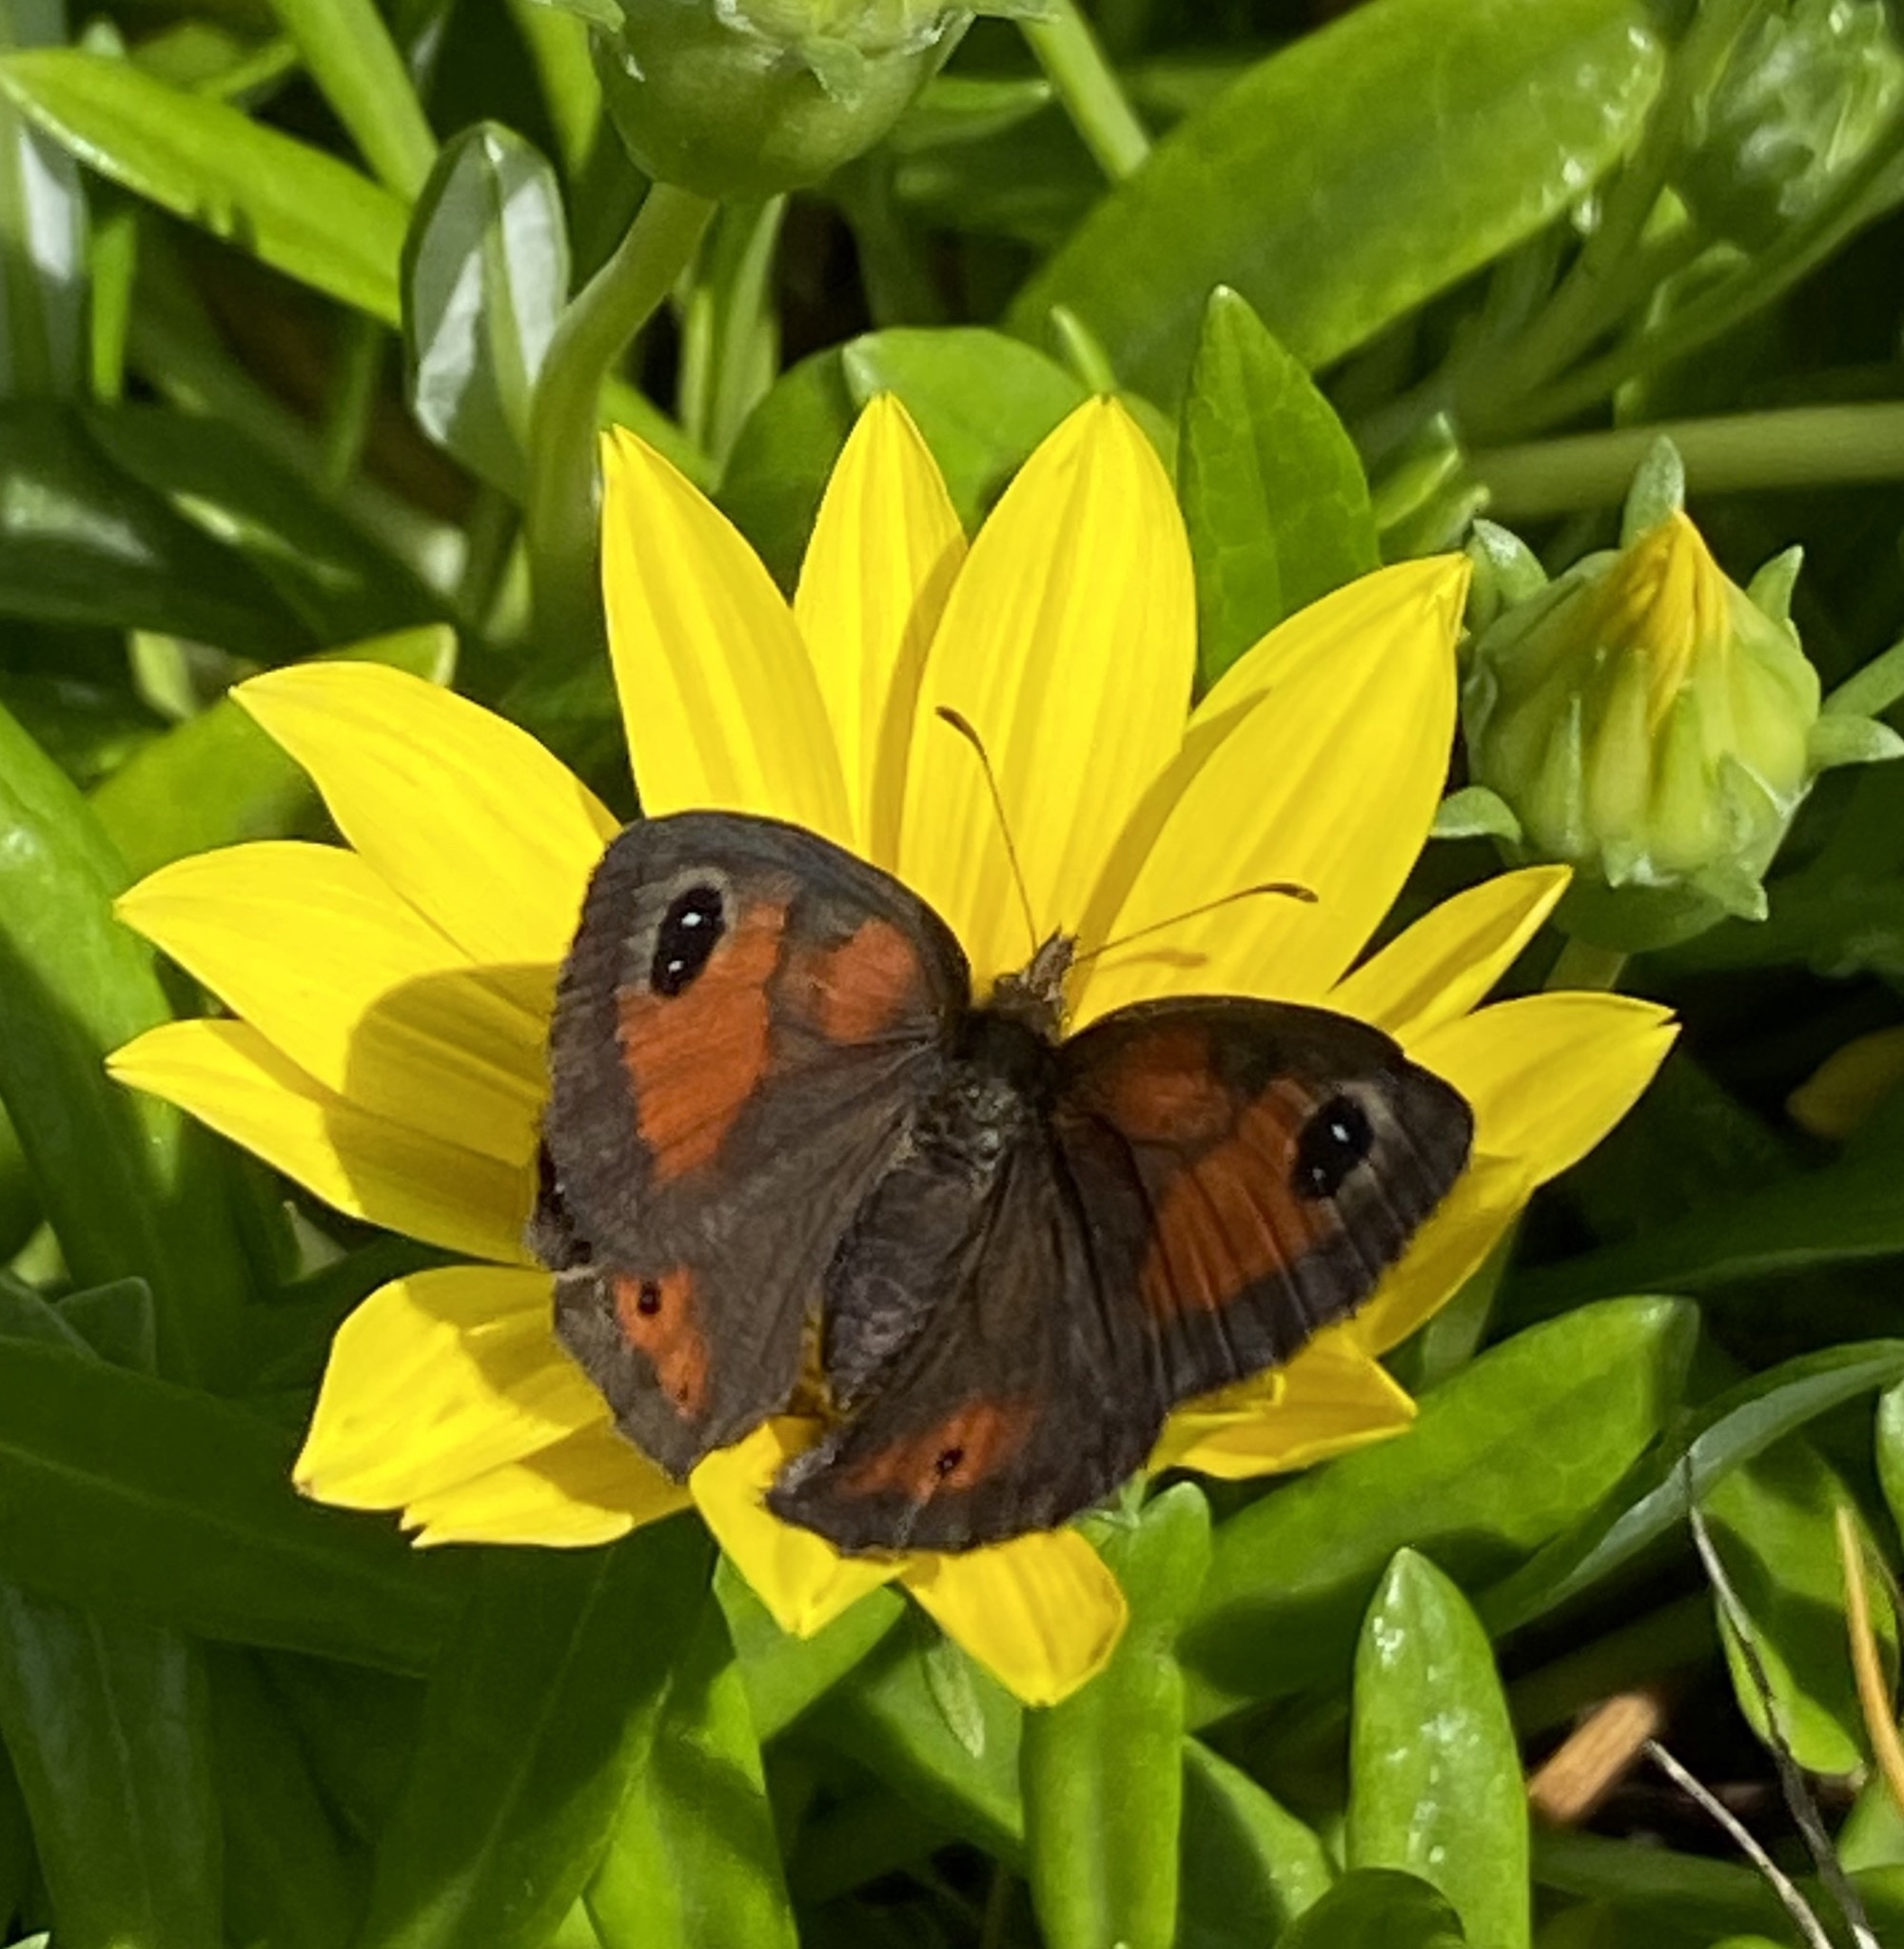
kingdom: Animalia
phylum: Arthropoda
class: Insecta
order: Lepidoptera
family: Nymphalidae
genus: Pseudonympha
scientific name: Pseudonympha magus
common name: Silver-bottom brown
